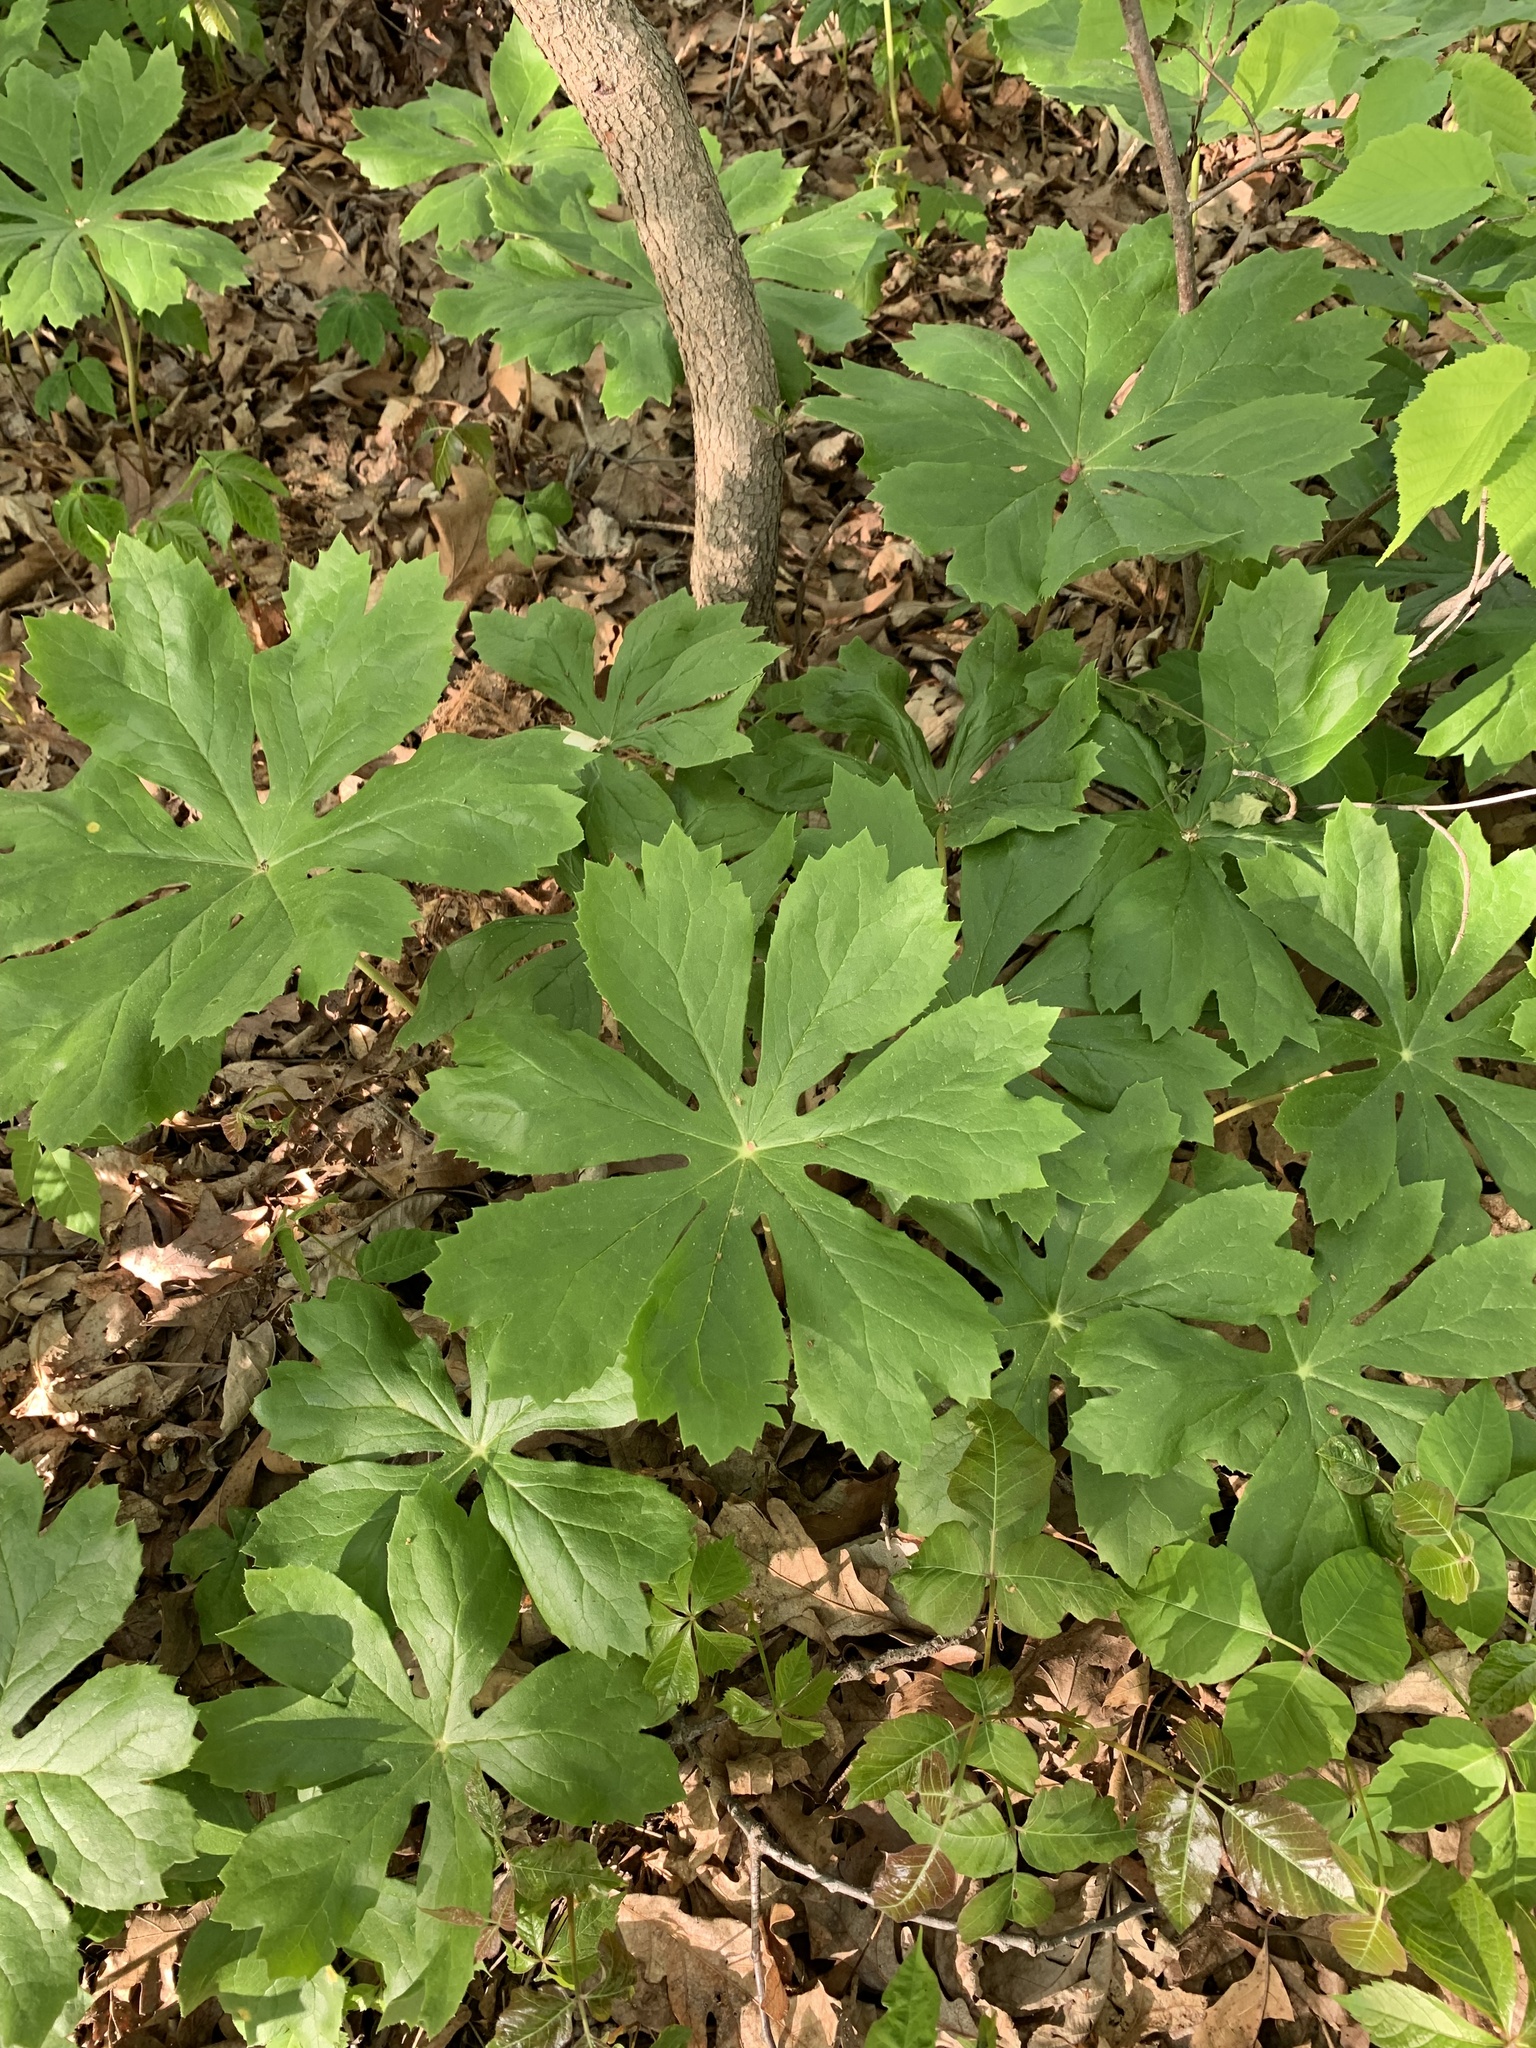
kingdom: Plantae
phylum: Tracheophyta
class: Magnoliopsida
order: Ranunculales
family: Berberidaceae
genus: Podophyllum
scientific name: Podophyllum peltatum
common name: Wild mandrake
